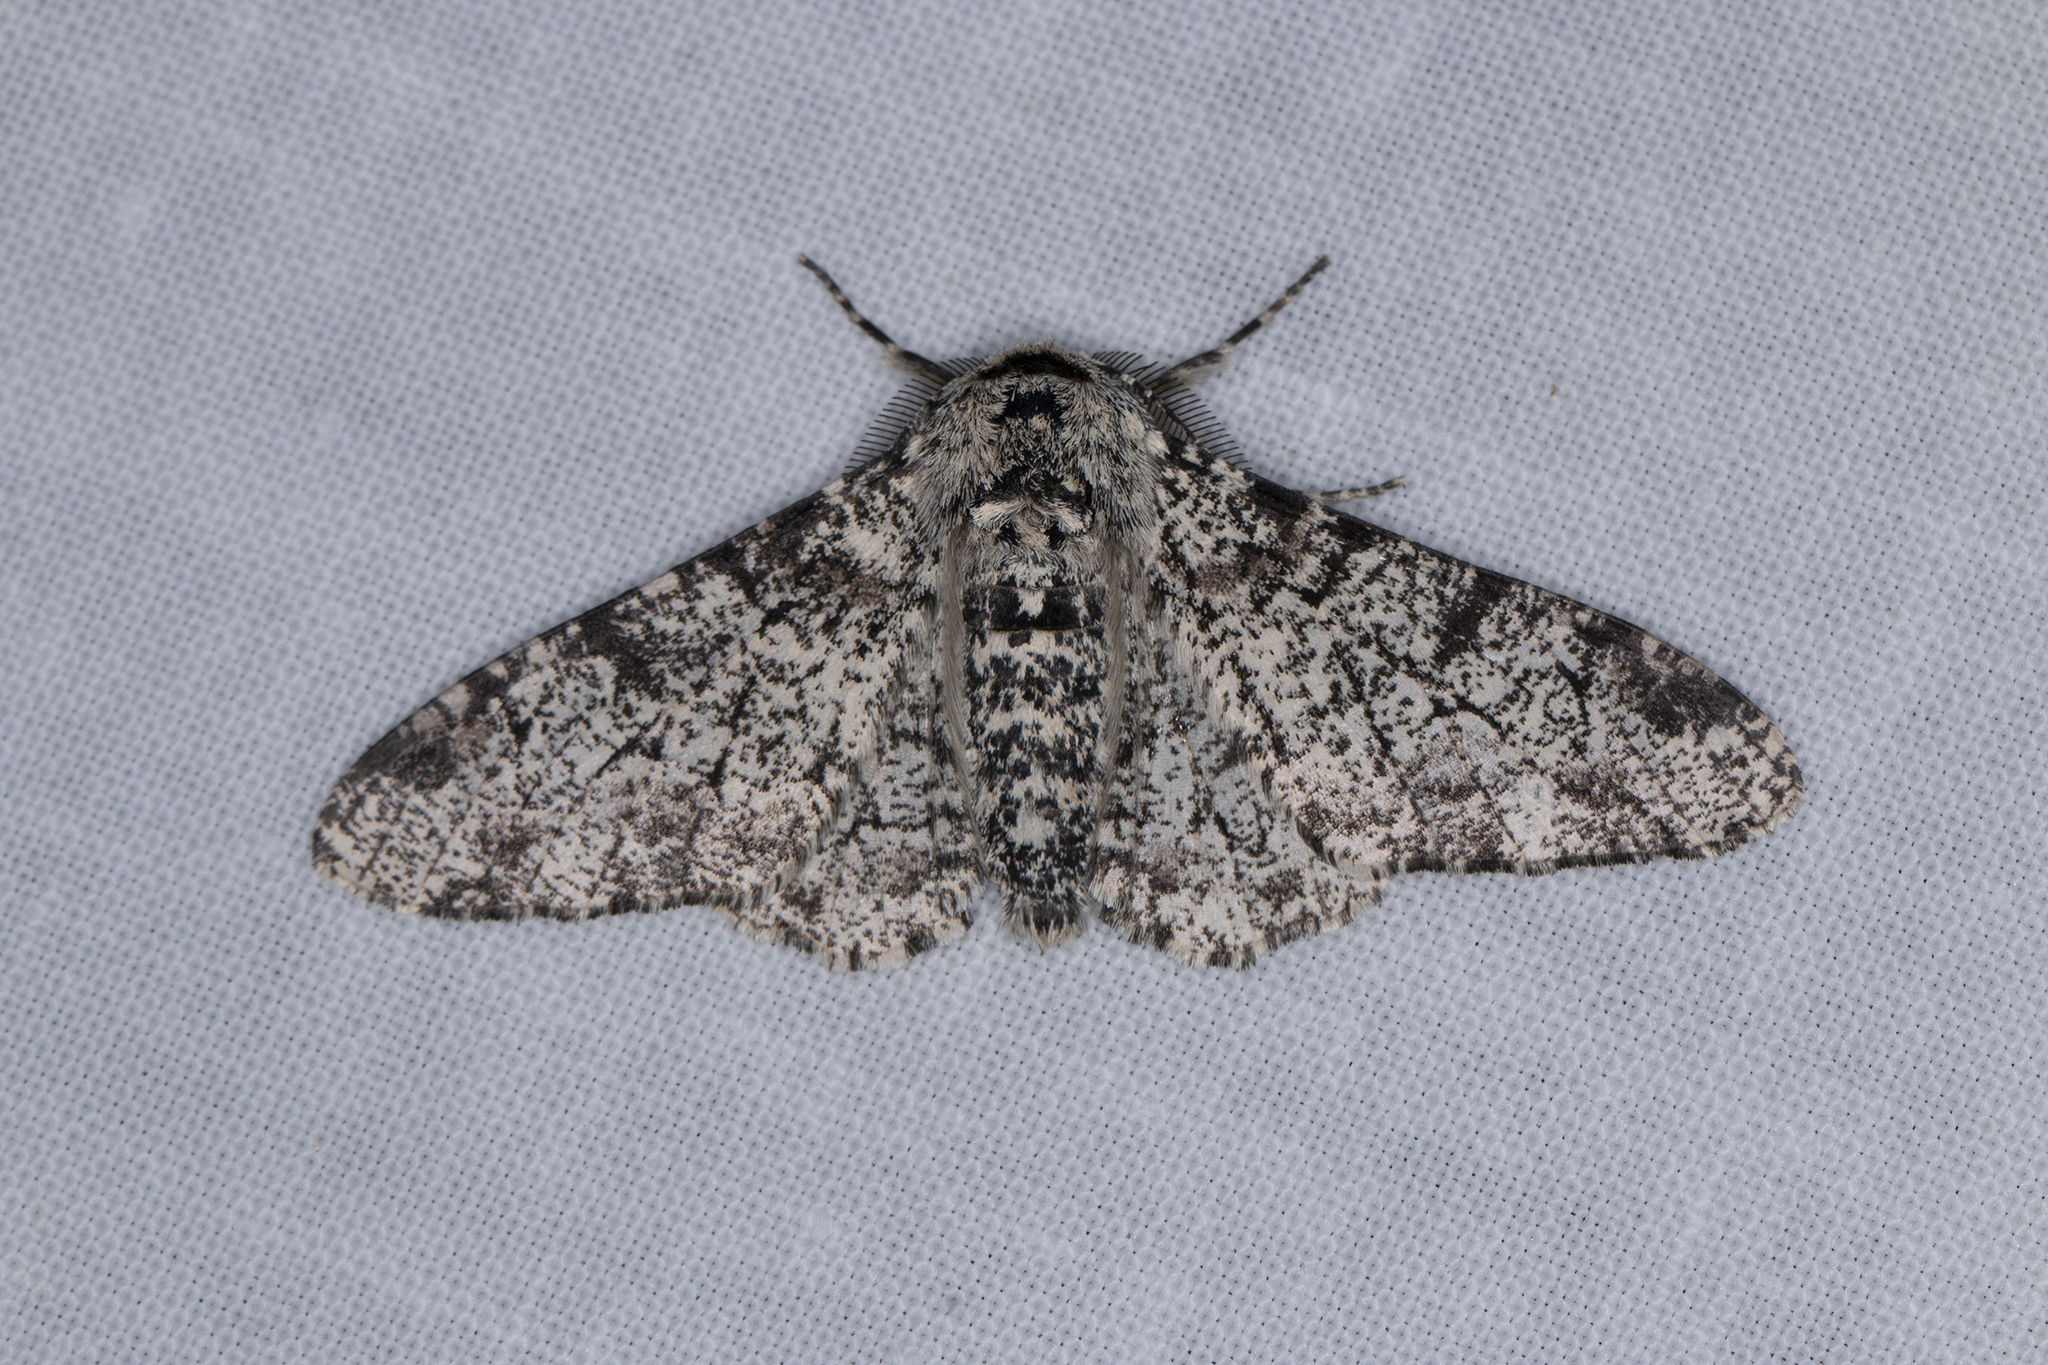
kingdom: Animalia
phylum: Arthropoda
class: Insecta
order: Lepidoptera
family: Geometridae
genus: Biston
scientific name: Biston betularia
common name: Peppered moth
